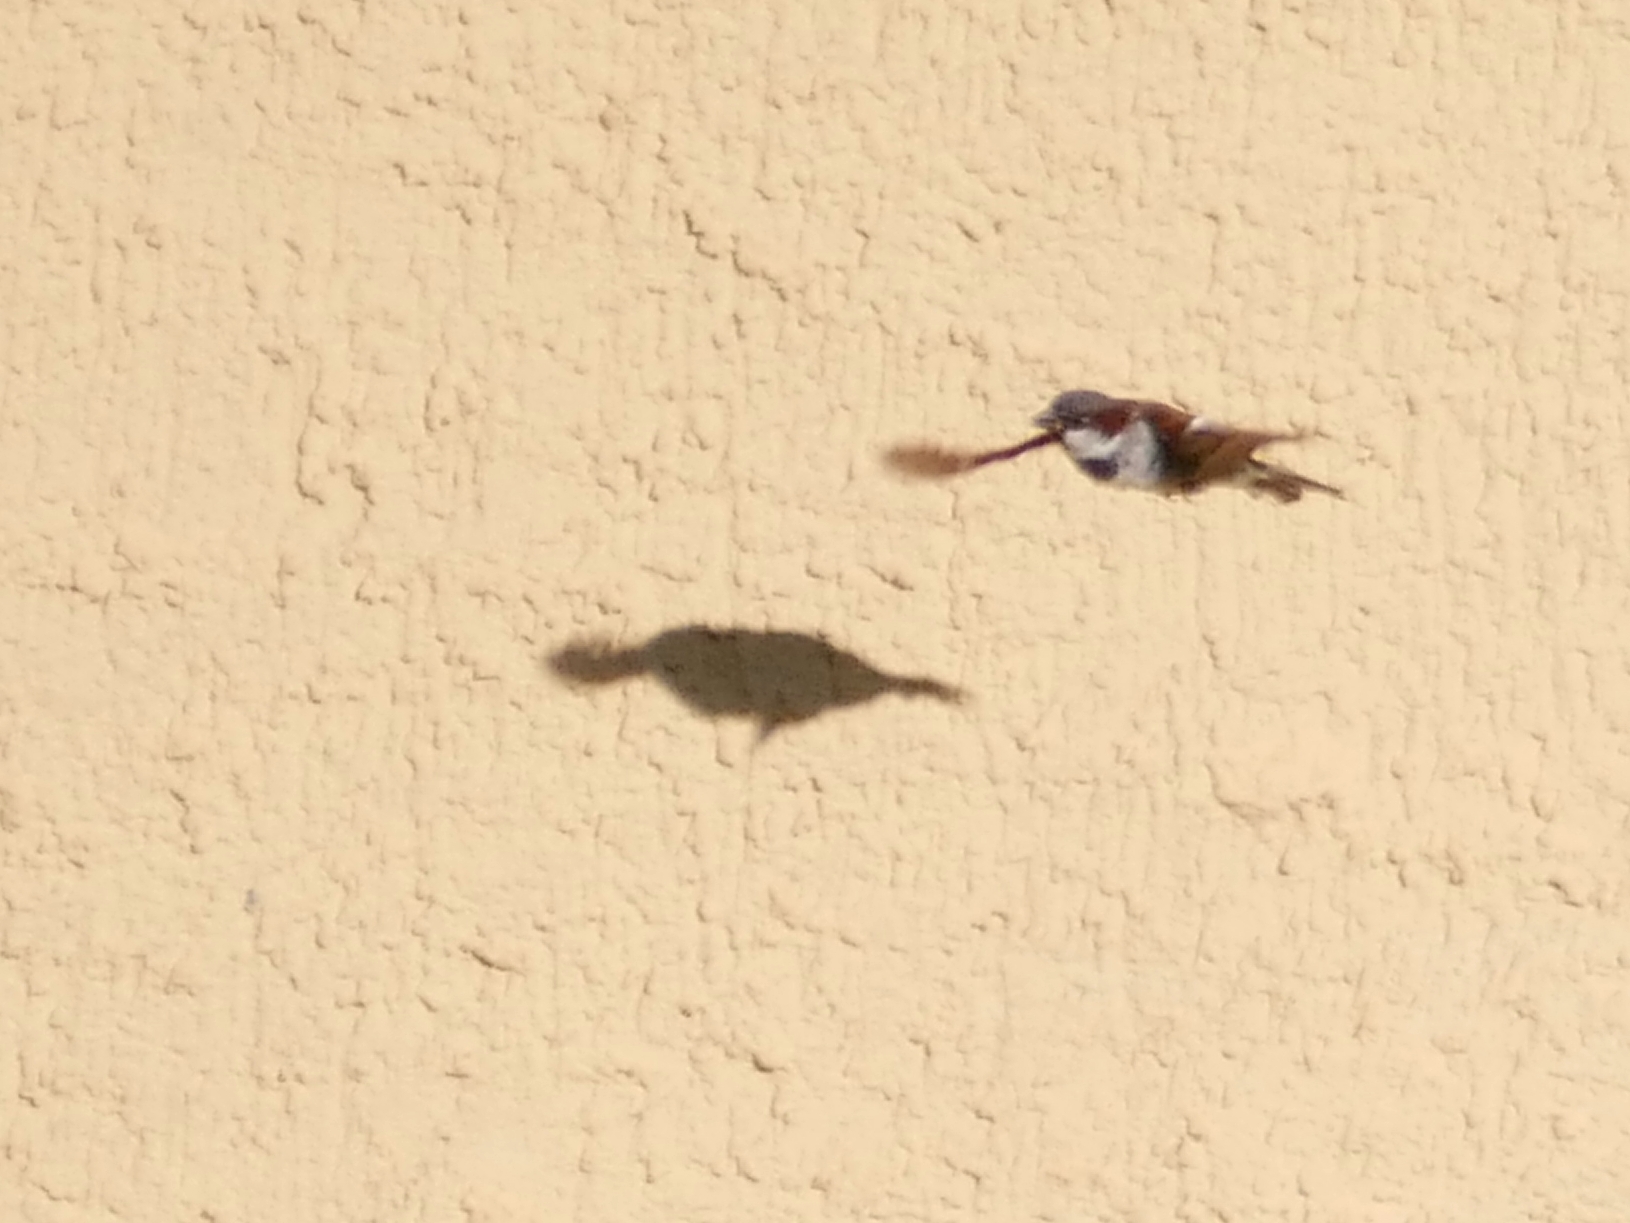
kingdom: Animalia
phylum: Chordata
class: Aves
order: Passeriformes
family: Passeridae
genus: Passer
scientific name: Passer domesticus
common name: House sparrow
